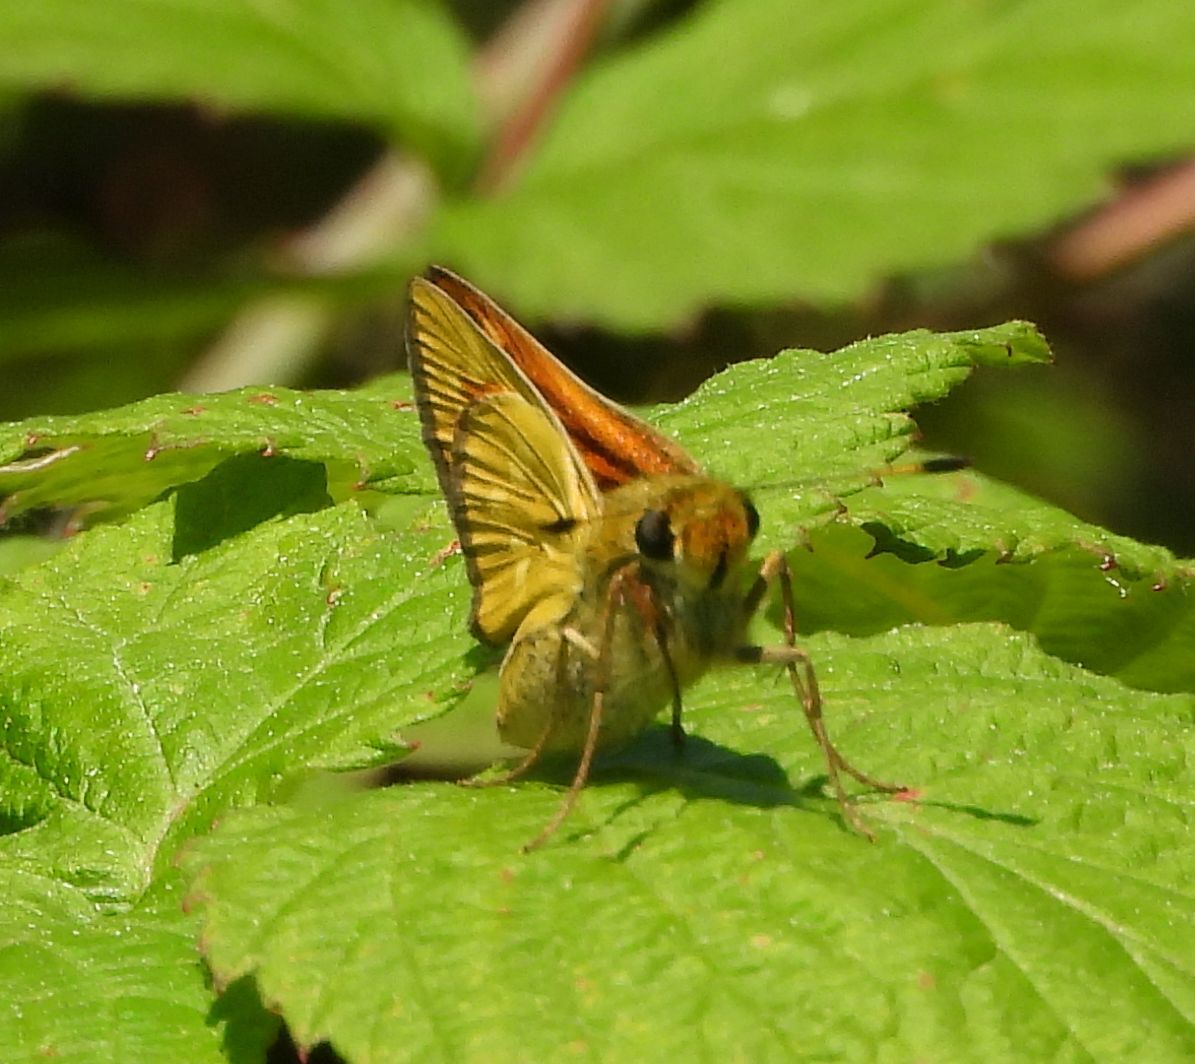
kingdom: Animalia
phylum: Arthropoda
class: Insecta
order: Lepidoptera
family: Hesperiidae
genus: Hesperia
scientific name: Hesperia sassacus
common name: Indian skipper
